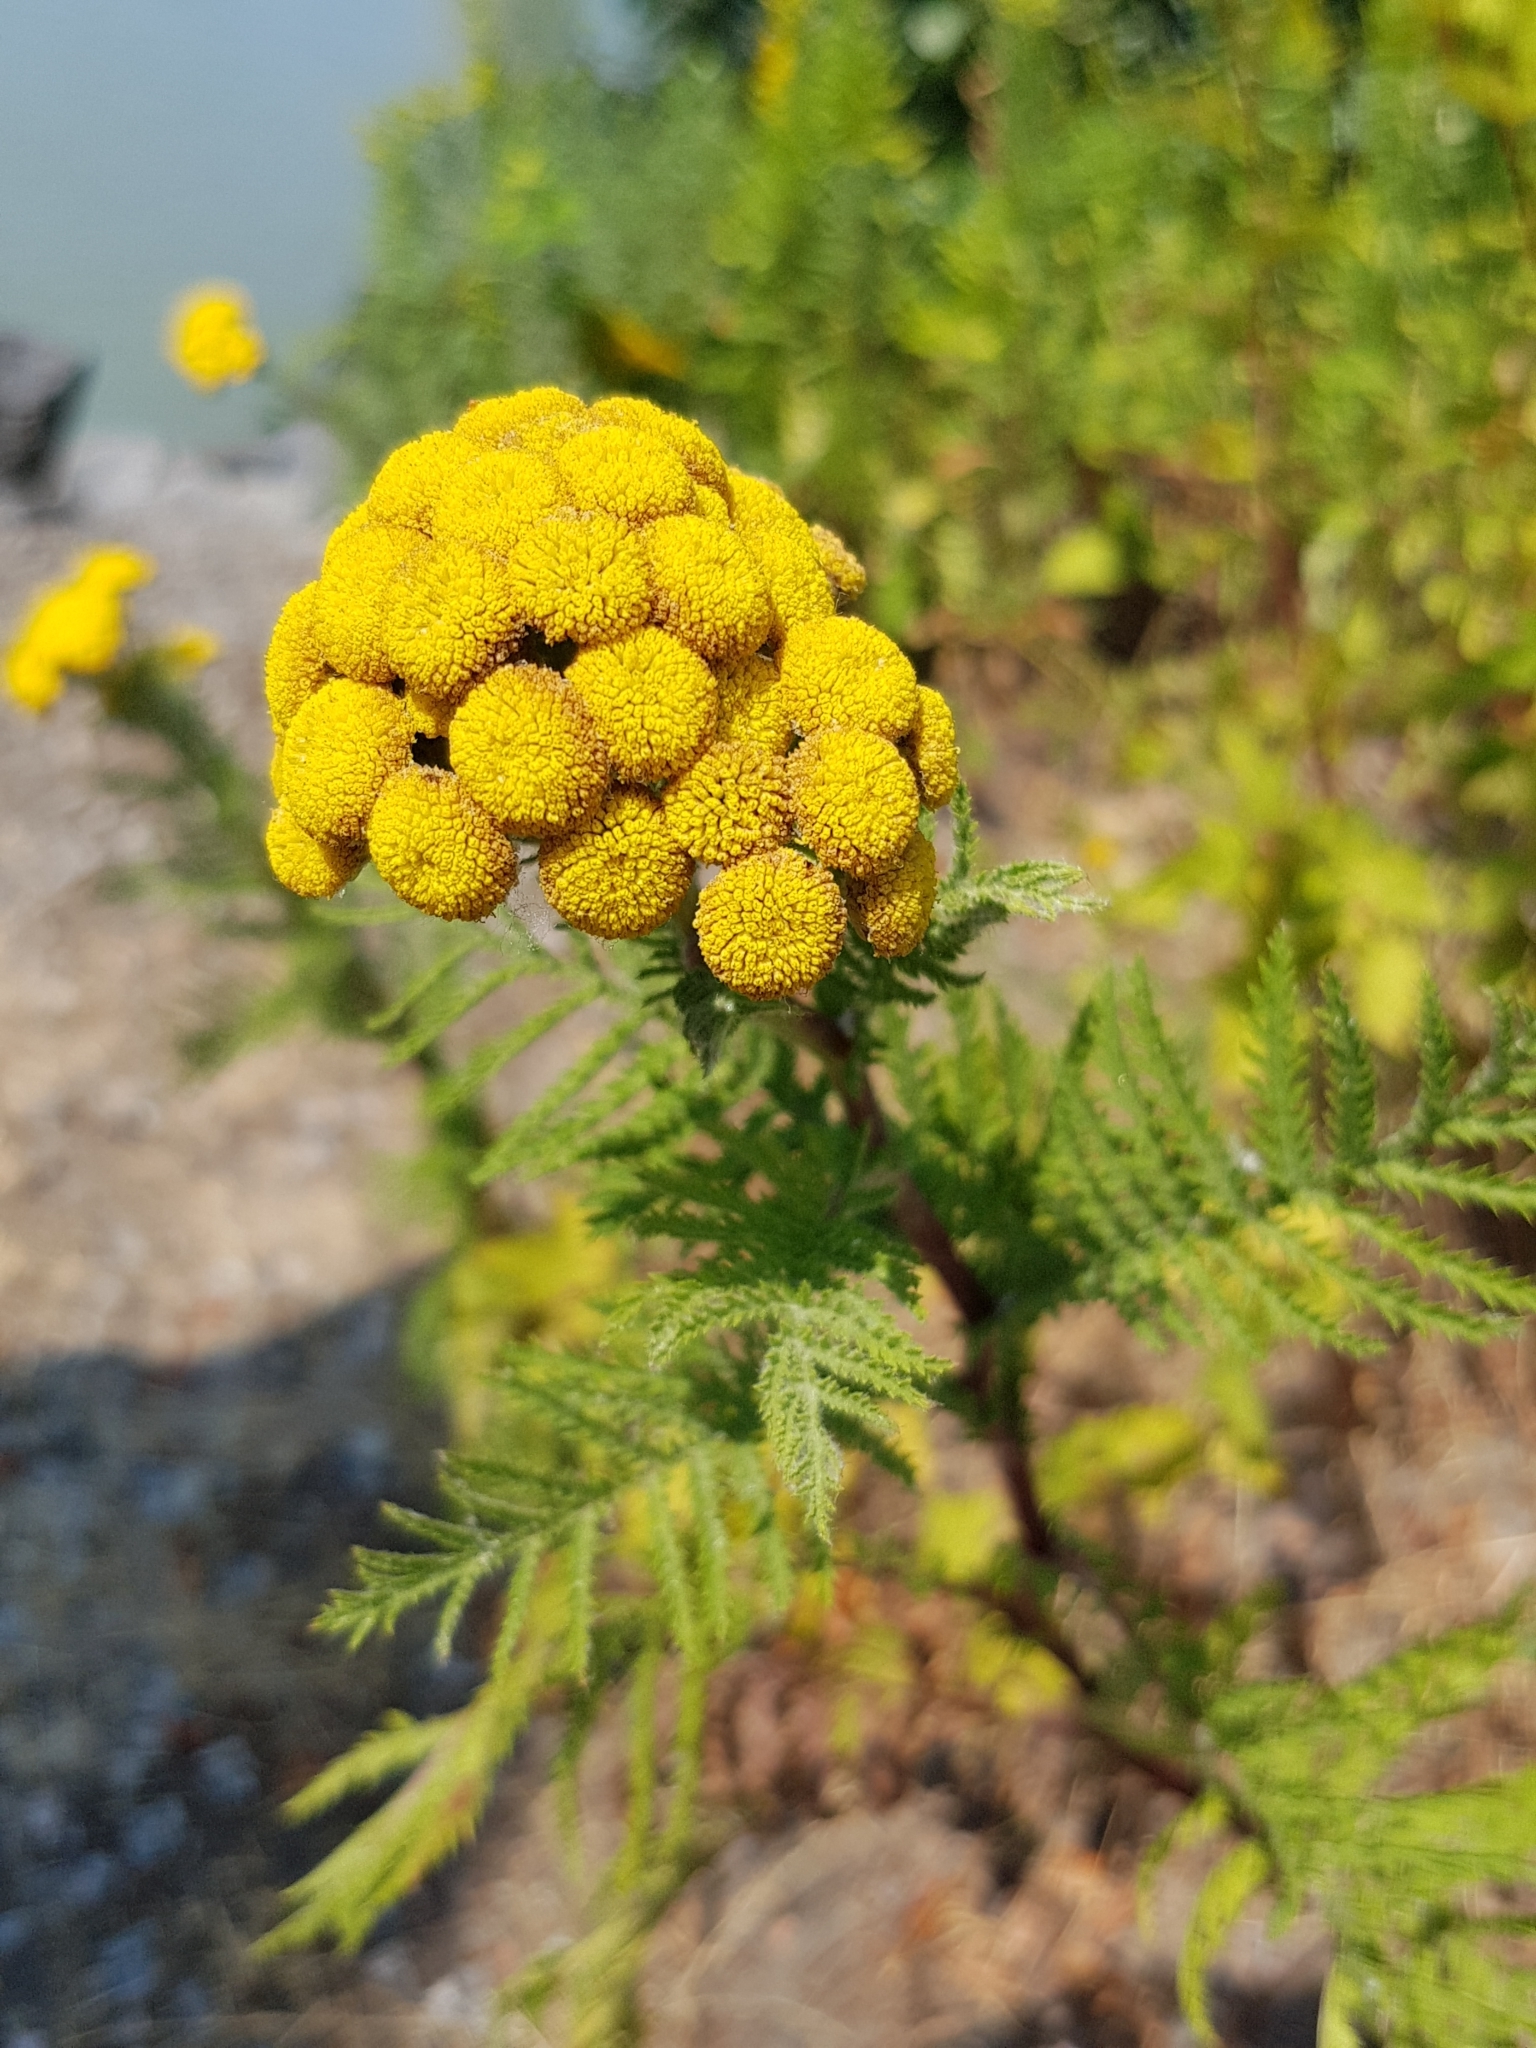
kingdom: Plantae
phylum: Tracheophyta
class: Magnoliopsida
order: Asterales
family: Asteraceae
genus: Tanacetum
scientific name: Tanacetum vulgare
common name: Common tansy
